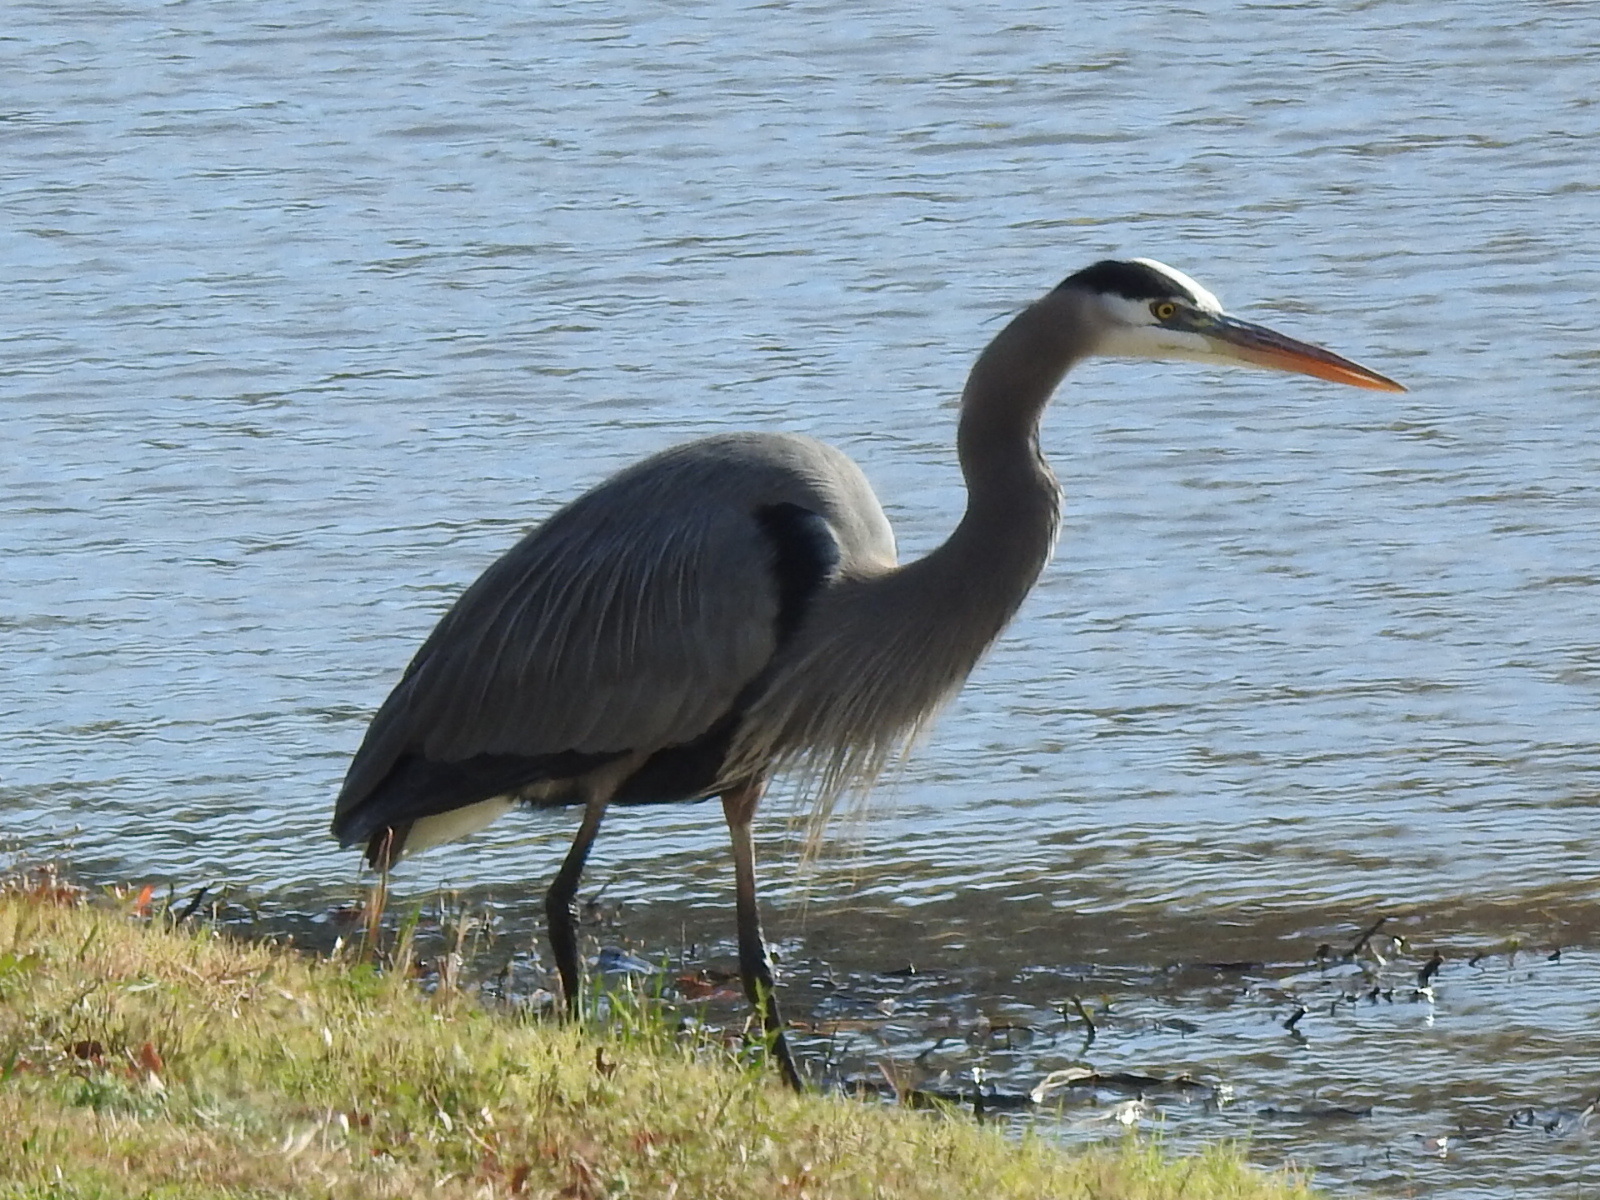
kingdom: Animalia
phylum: Chordata
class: Aves
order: Pelecaniformes
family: Ardeidae
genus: Ardea
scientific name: Ardea herodias
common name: Great blue heron
